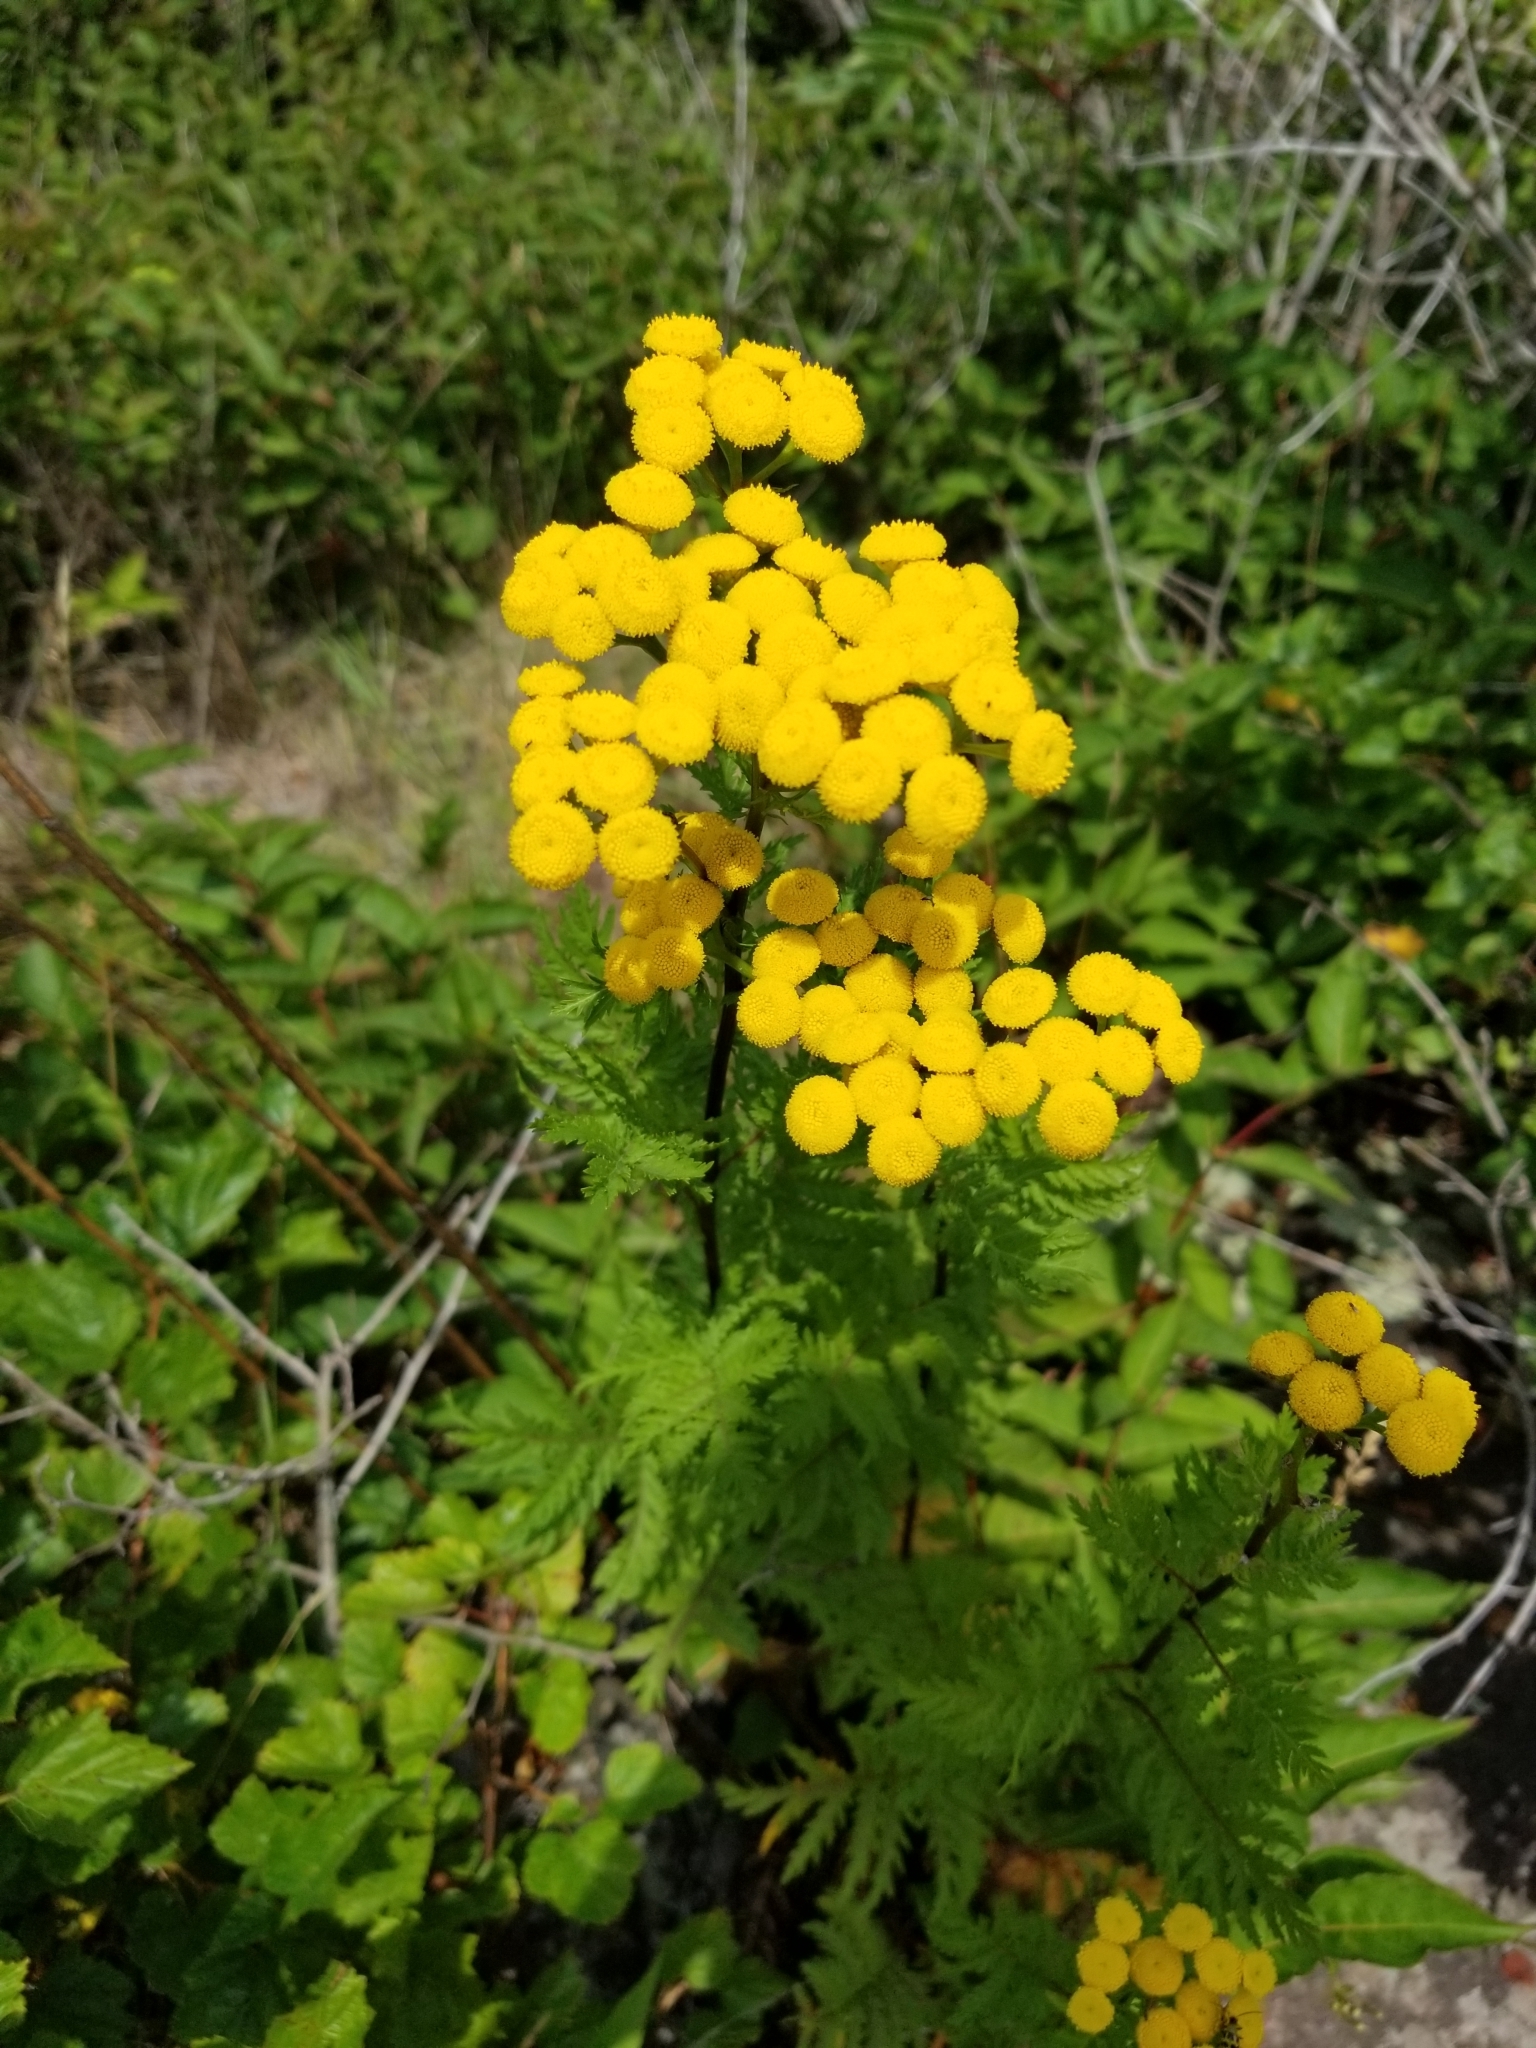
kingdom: Plantae
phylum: Tracheophyta
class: Magnoliopsida
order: Asterales
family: Asteraceae
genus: Tanacetum
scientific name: Tanacetum vulgare
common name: Common tansy
